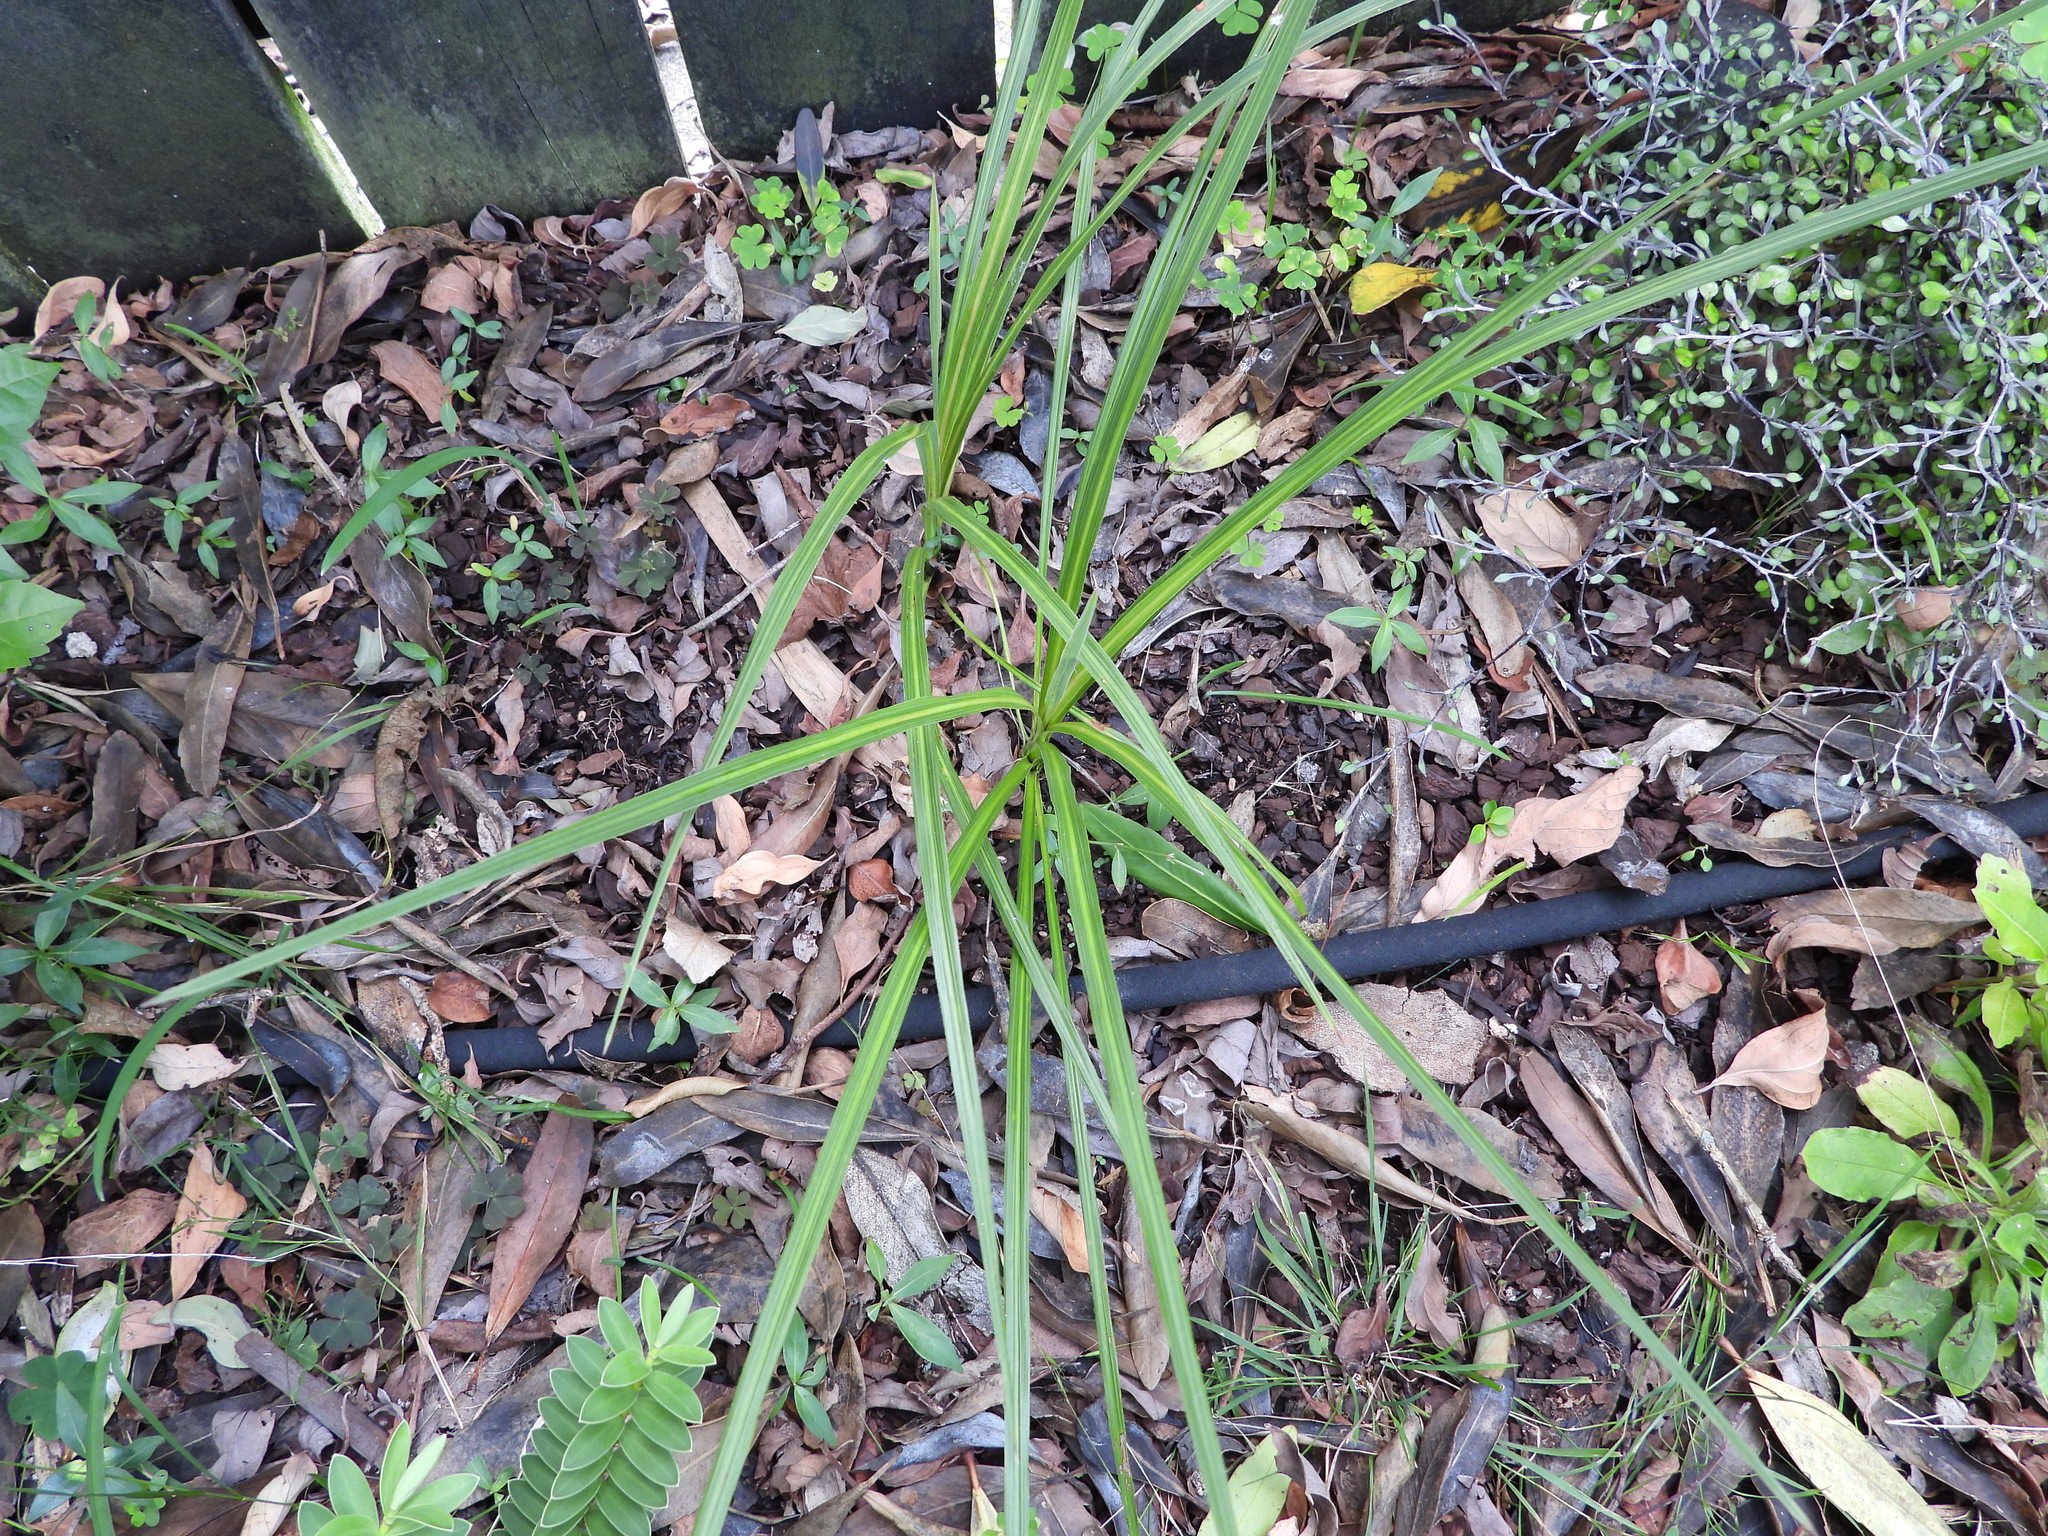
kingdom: Plantae
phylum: Tracheophyta
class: Liliopsida
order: Asparagales
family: Asparagaceae
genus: Cordyline
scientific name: Cordyline australis
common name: Cabbage-palm
